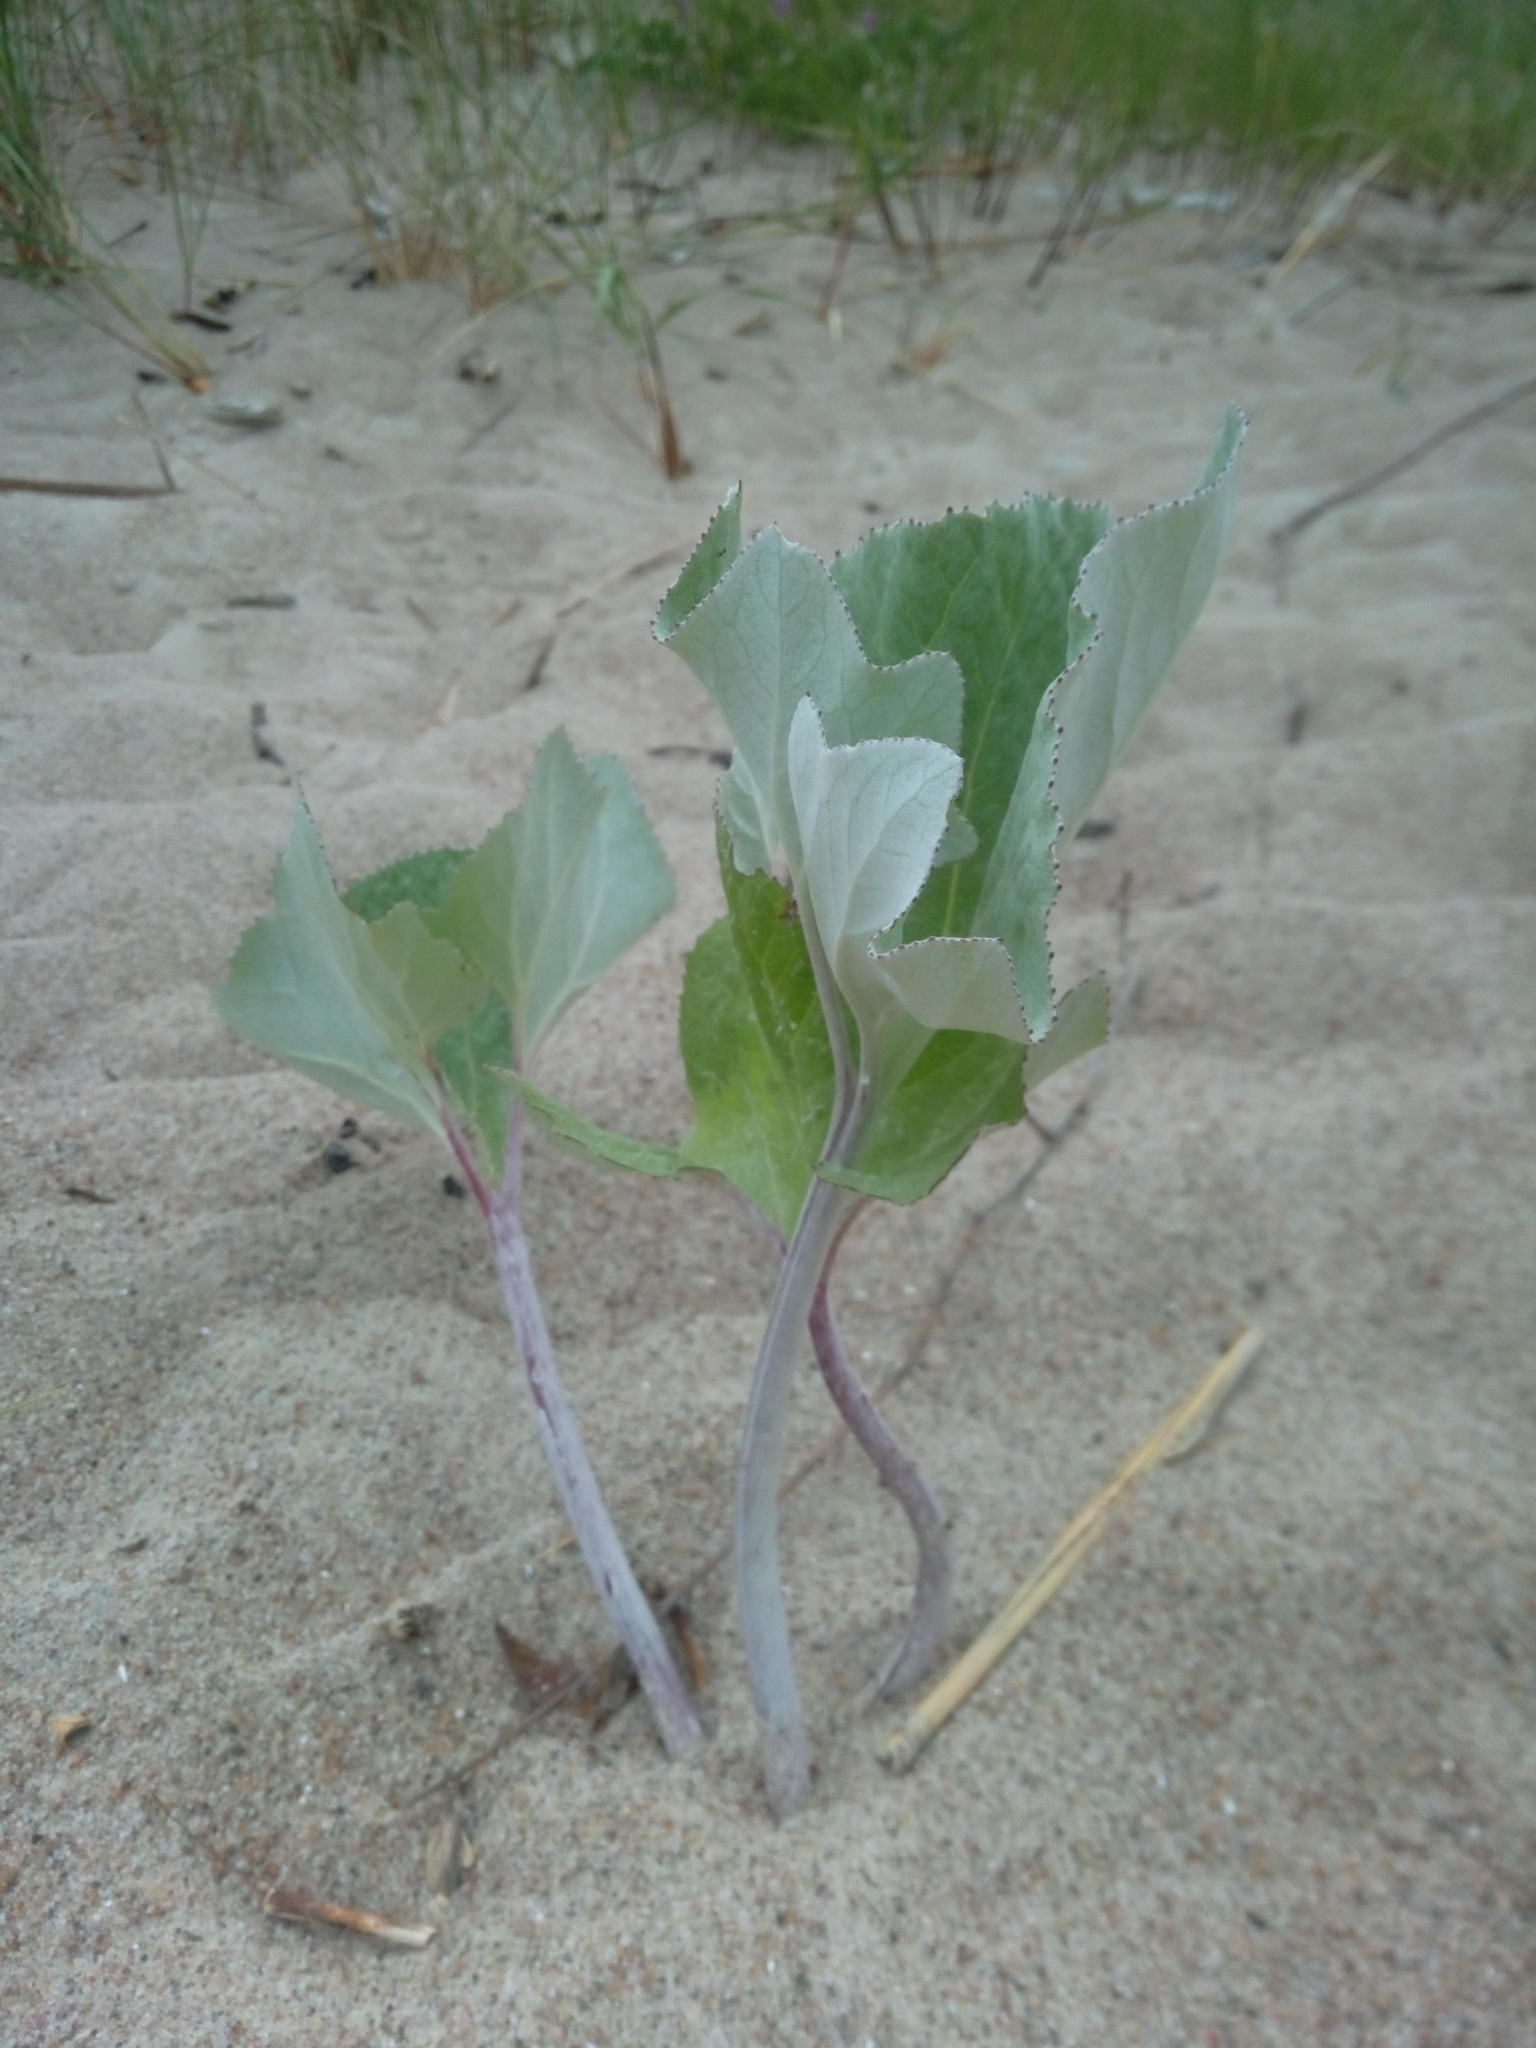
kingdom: Plantae
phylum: Tracheophyta
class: Magnoliopsida
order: Asterales
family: Asteraceae
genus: Petasites
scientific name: Petasites spurius
